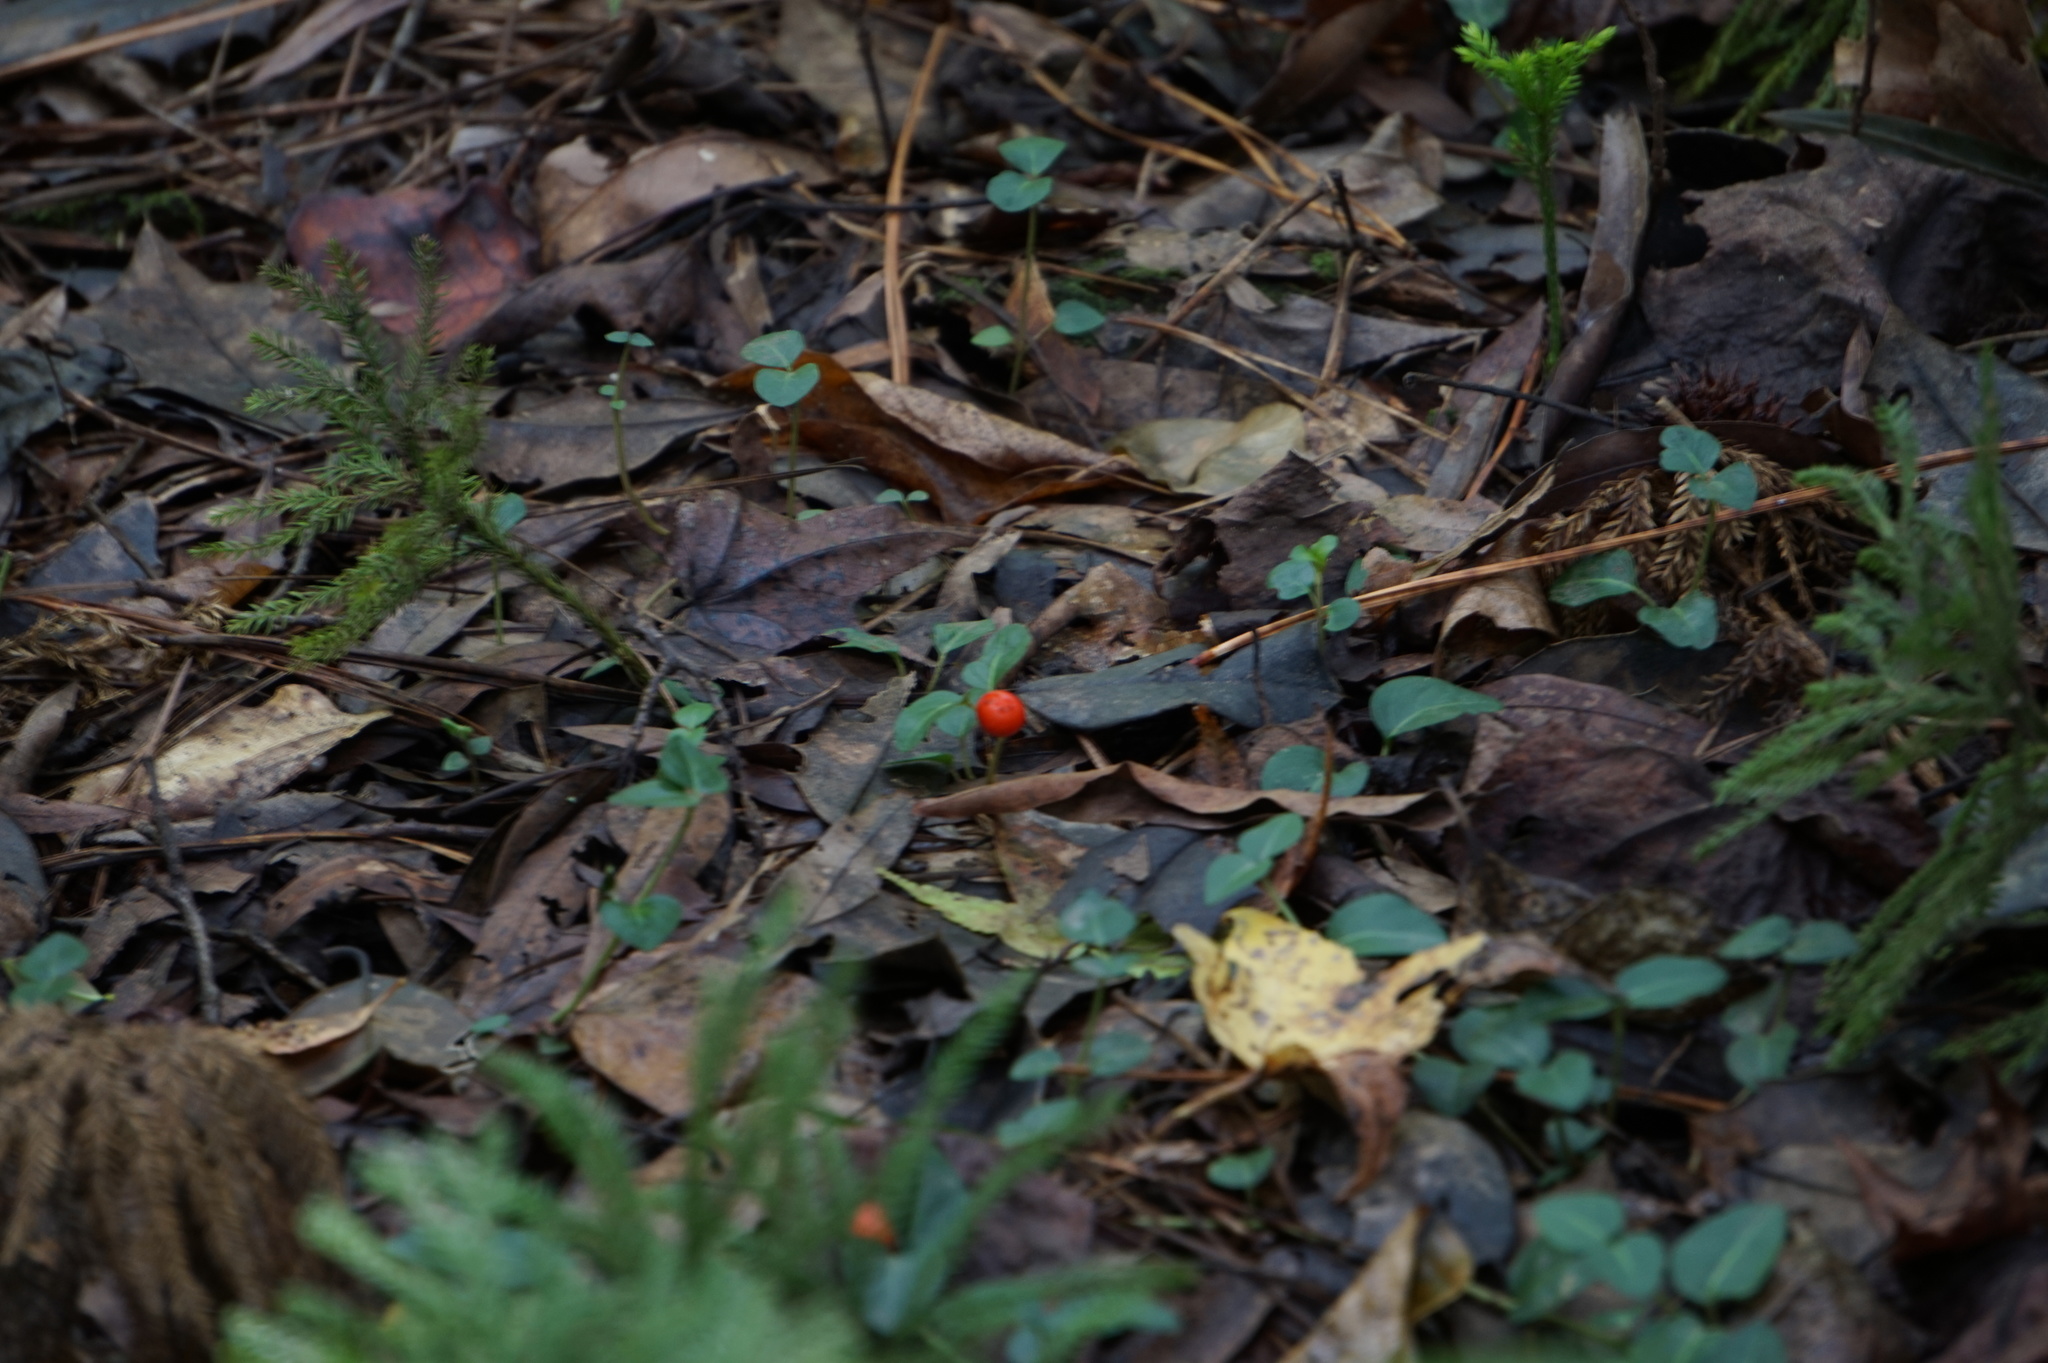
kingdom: Plantae
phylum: Tracheophyta
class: Magnoliopsida
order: Gentianales
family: Rubiaceae
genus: Mitchella
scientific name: Mitchella repens
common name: Partridge-berry
